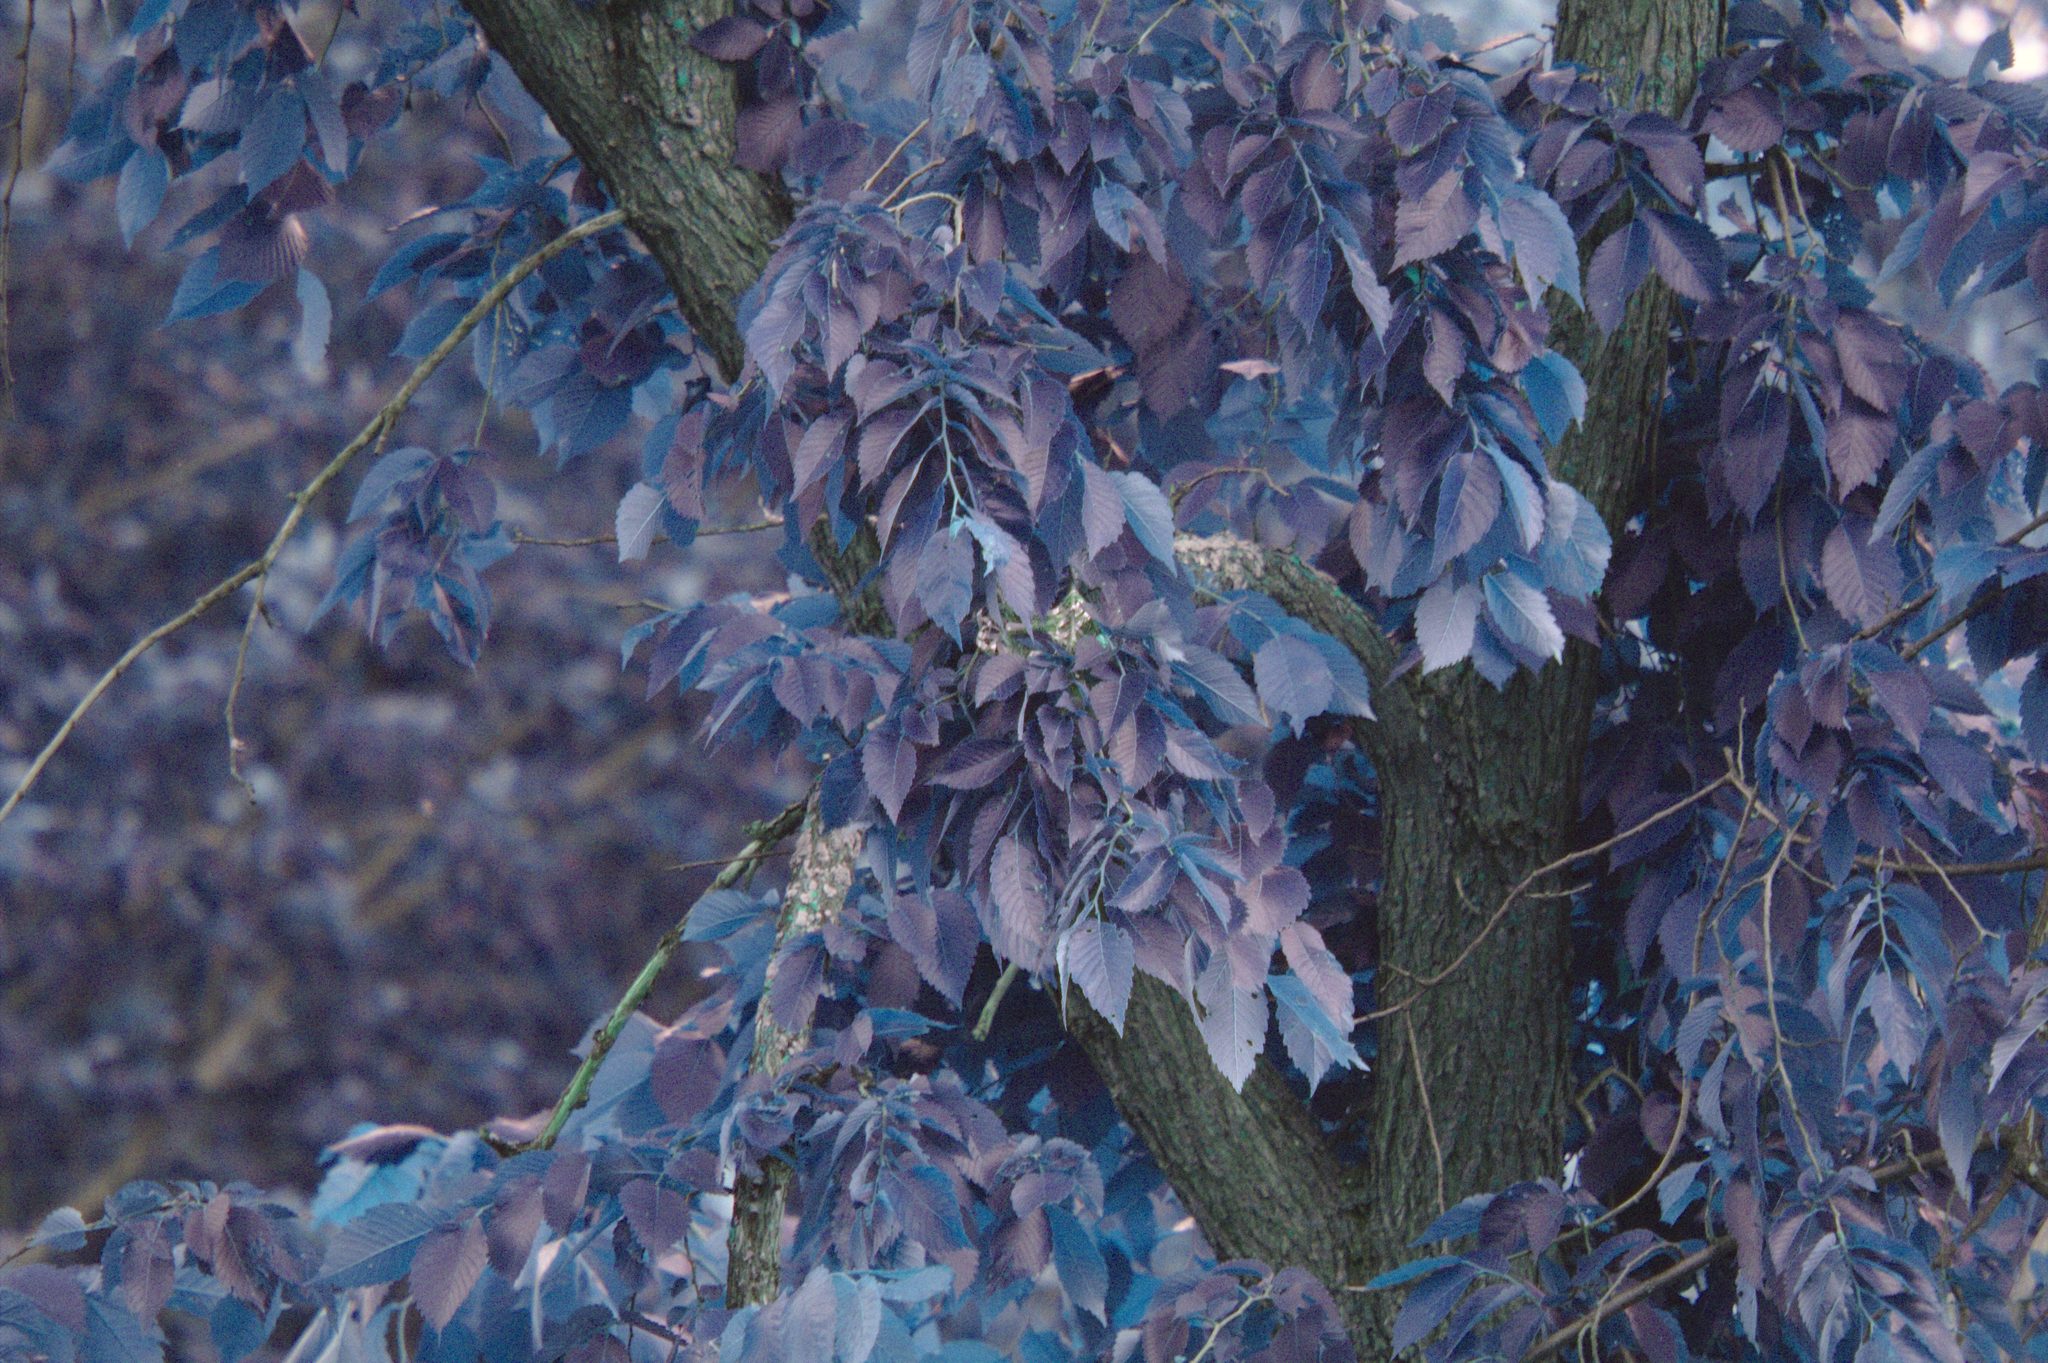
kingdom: Animalia
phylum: Chordata
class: Aves
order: Passeriformes
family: Icteridae
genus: Icterus
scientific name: Icterus galbula
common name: Baltimore oriole
